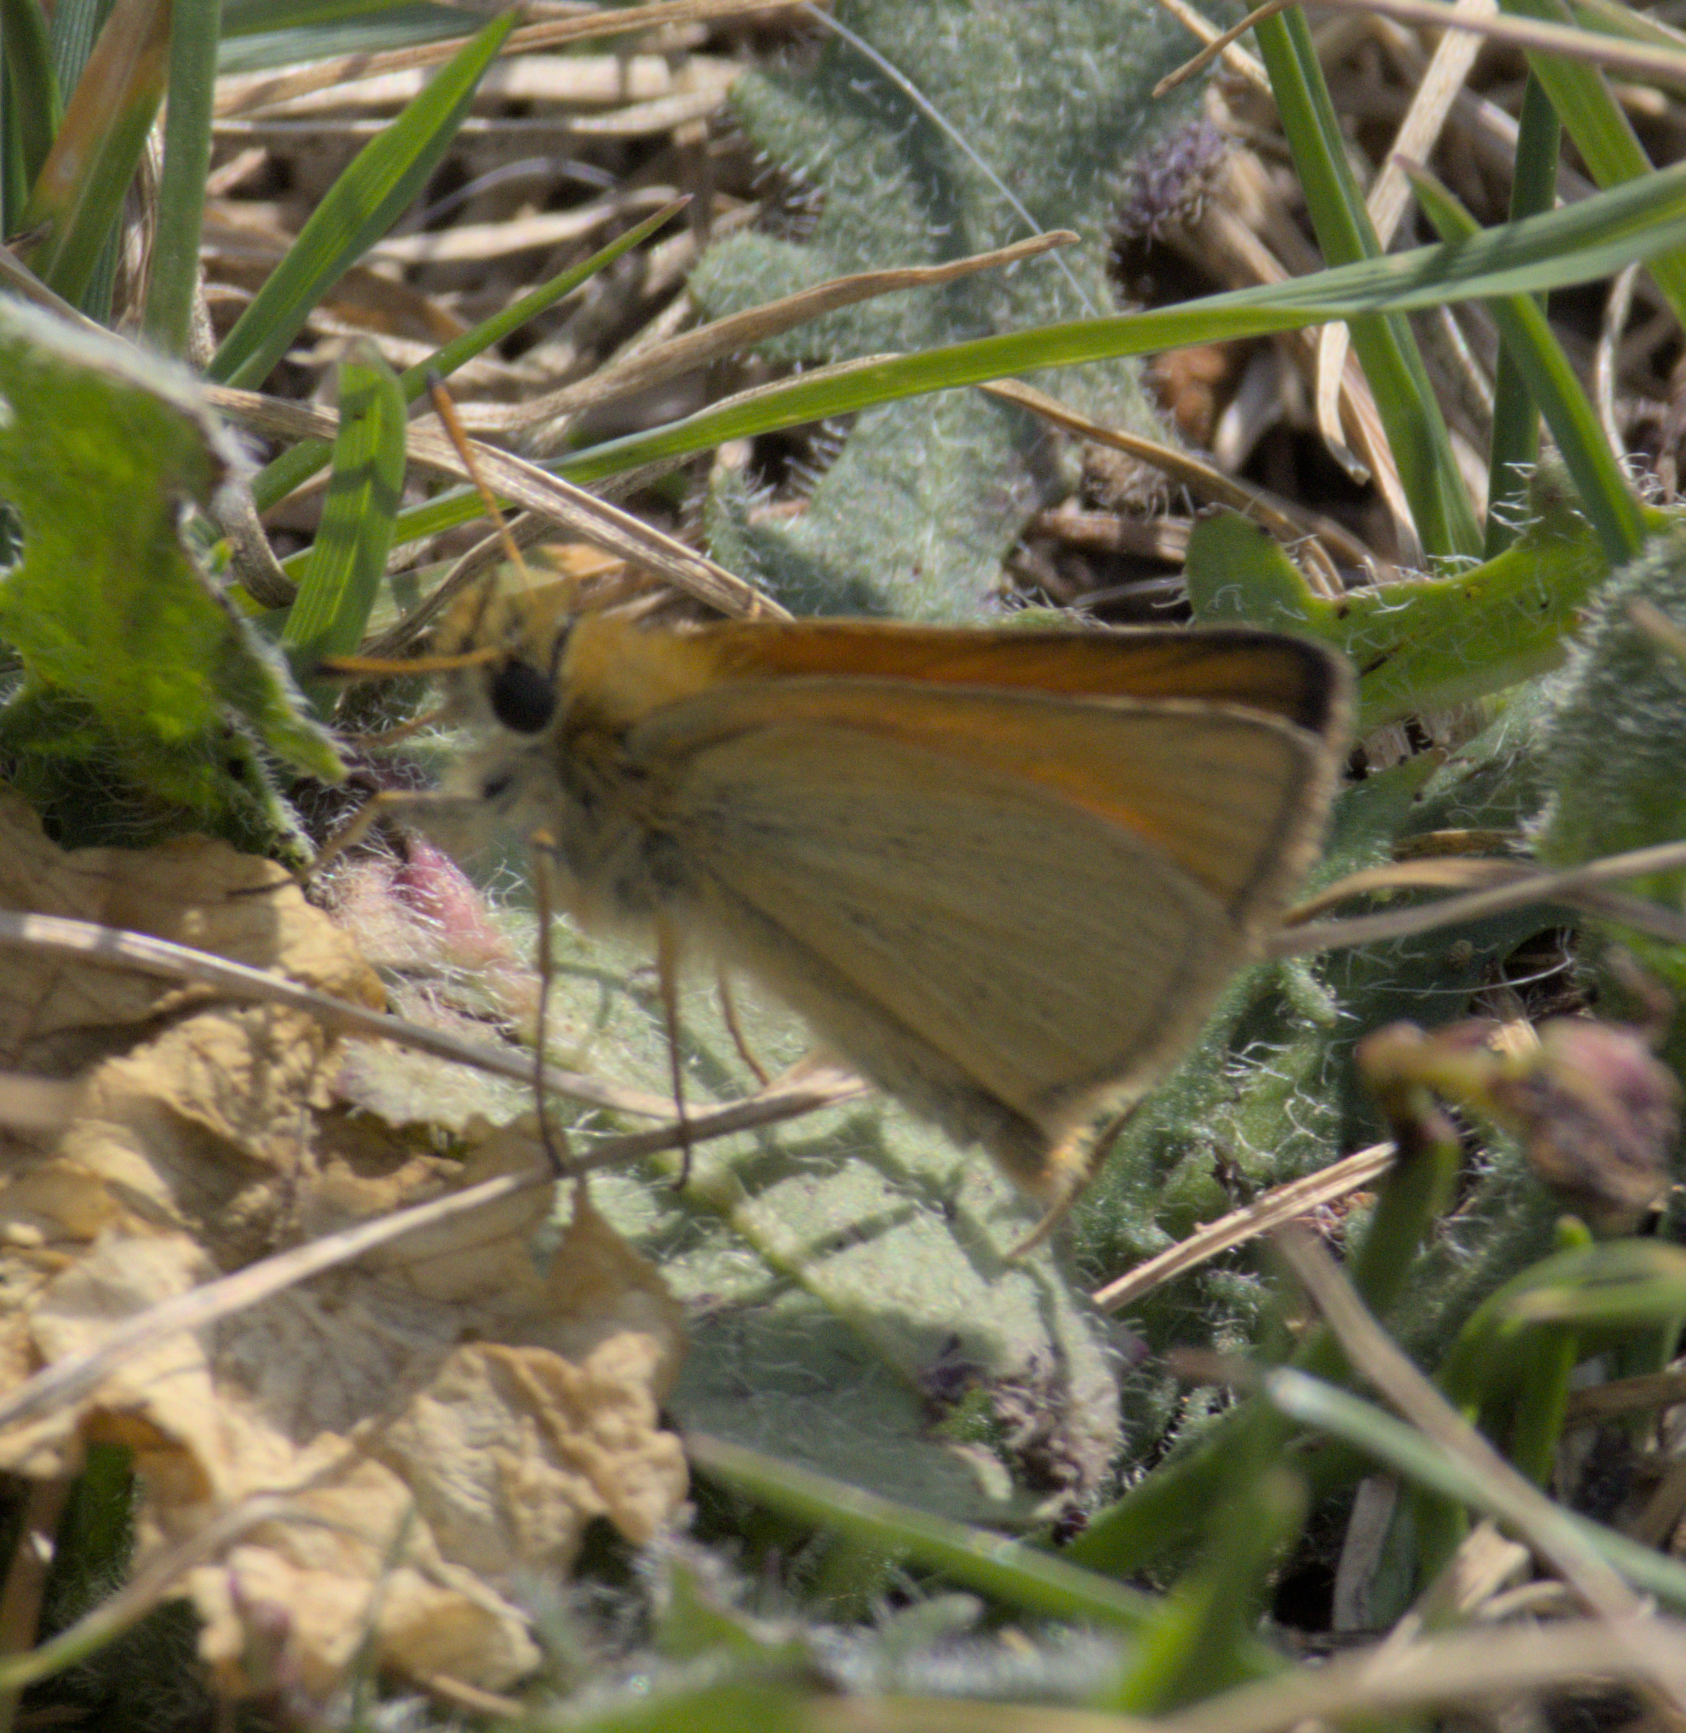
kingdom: Animalia
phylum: Arthropoda
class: Insecta
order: Lepidoptera
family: Hesperiidae
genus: Thymelicus
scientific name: Thymelicus lineola
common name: Essex skipper
